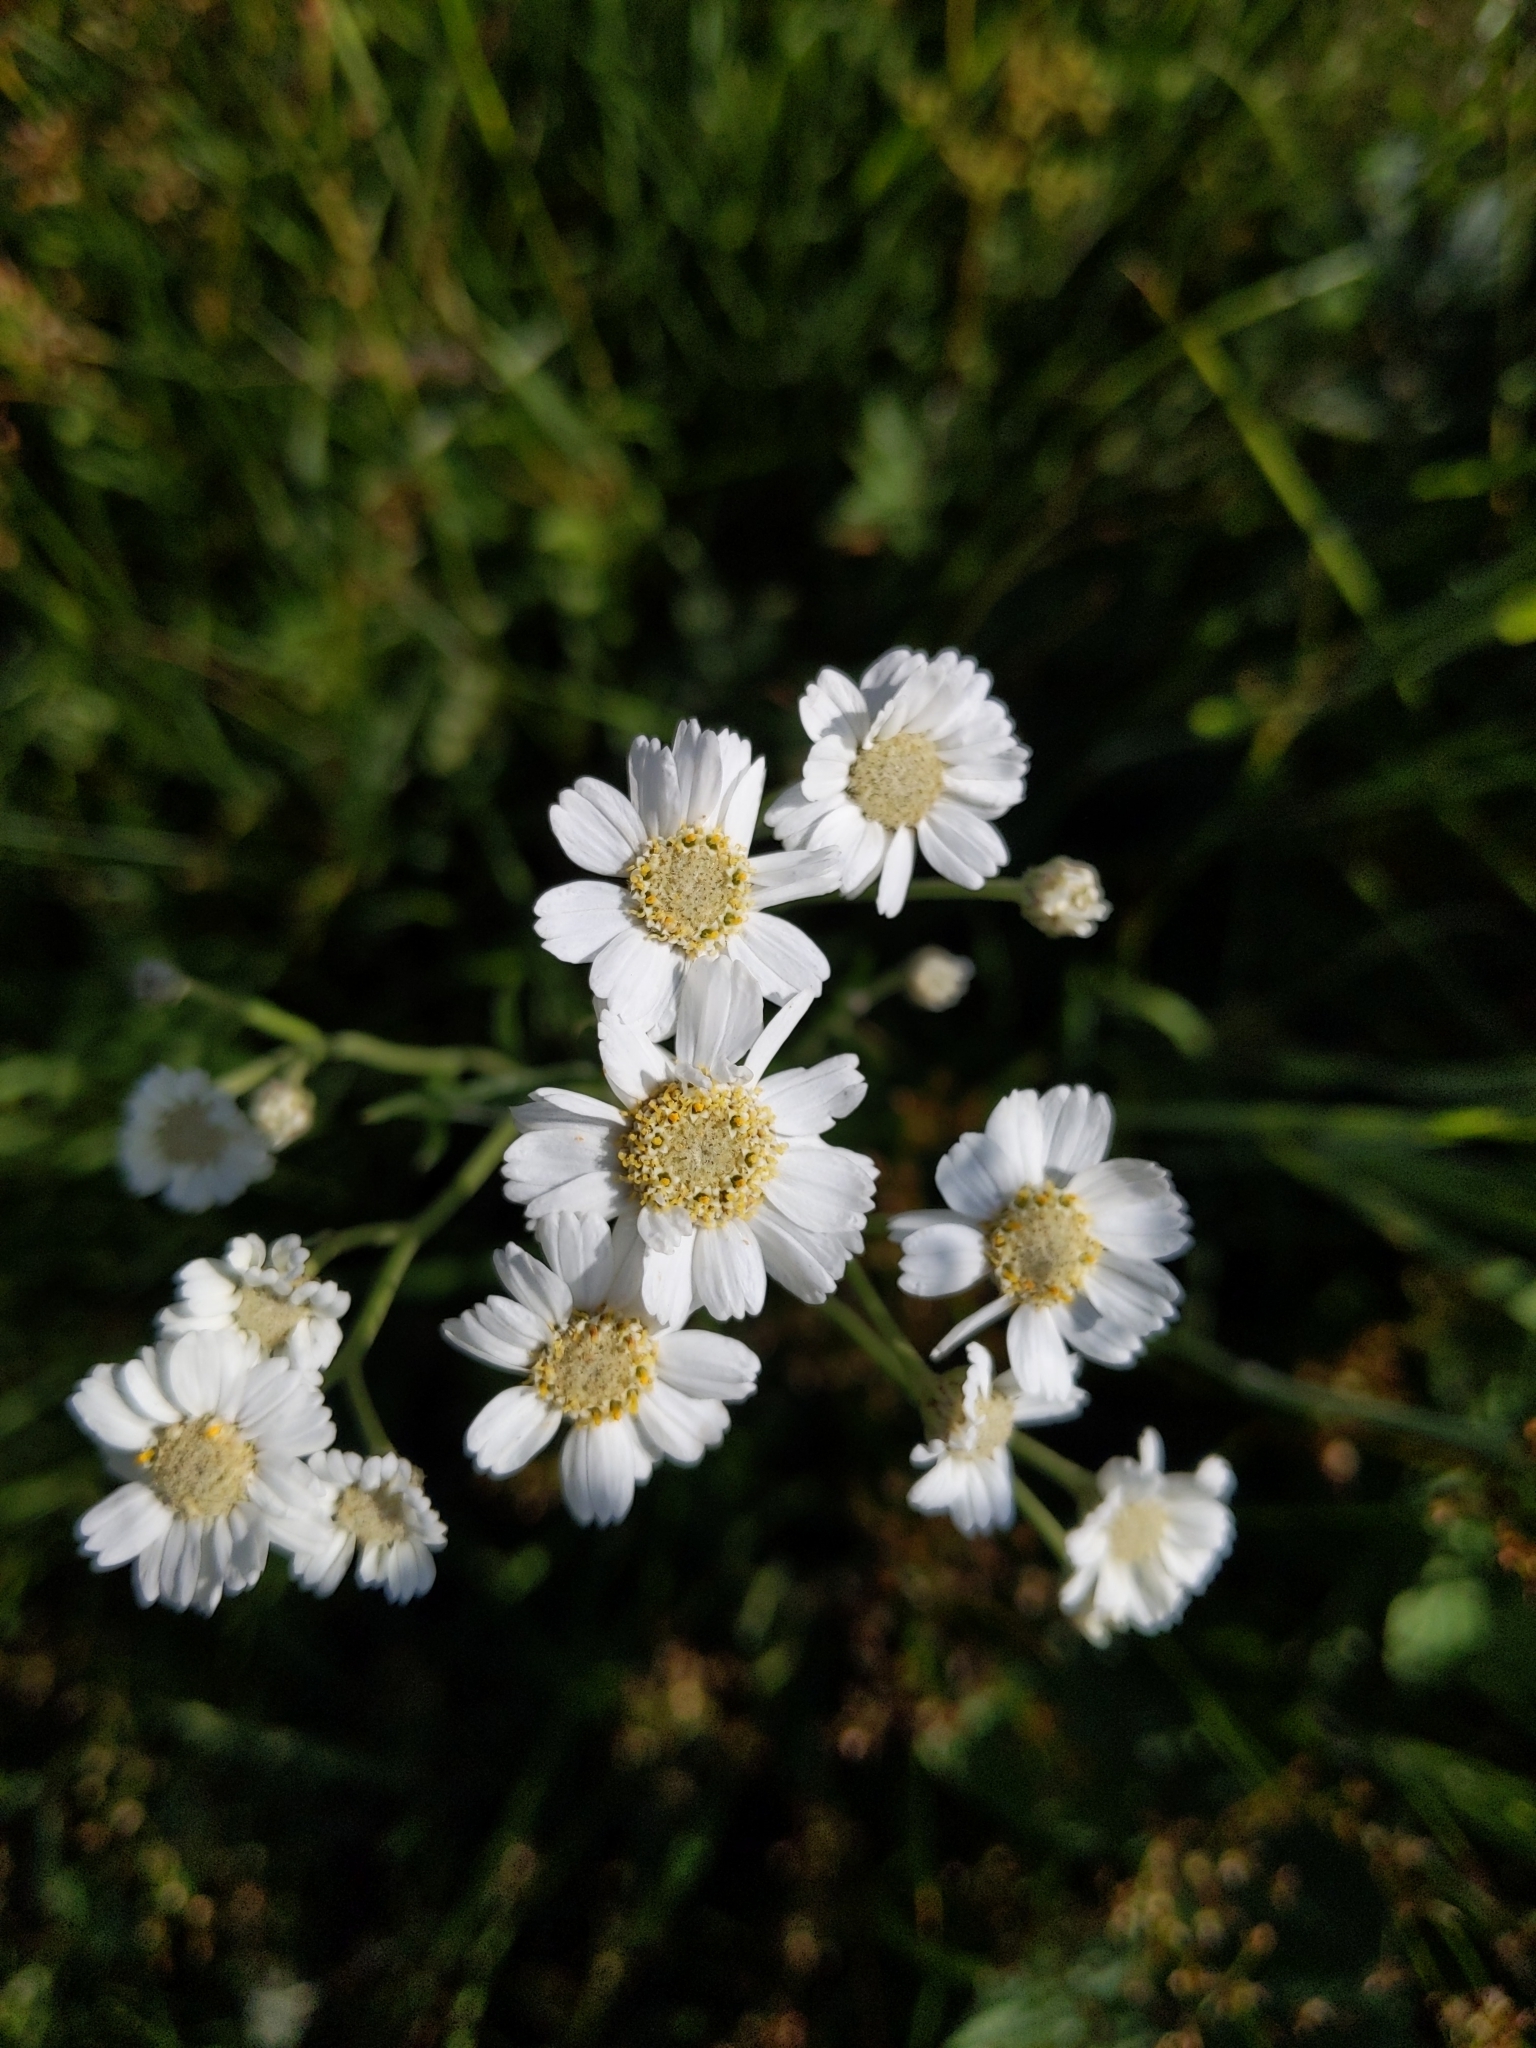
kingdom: Plantae
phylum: Tracheophyta
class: Magnoliopsida
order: Asterales
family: Asteraceae
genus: Achillea
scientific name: Achillea ptarmica
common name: Sneezeweed
